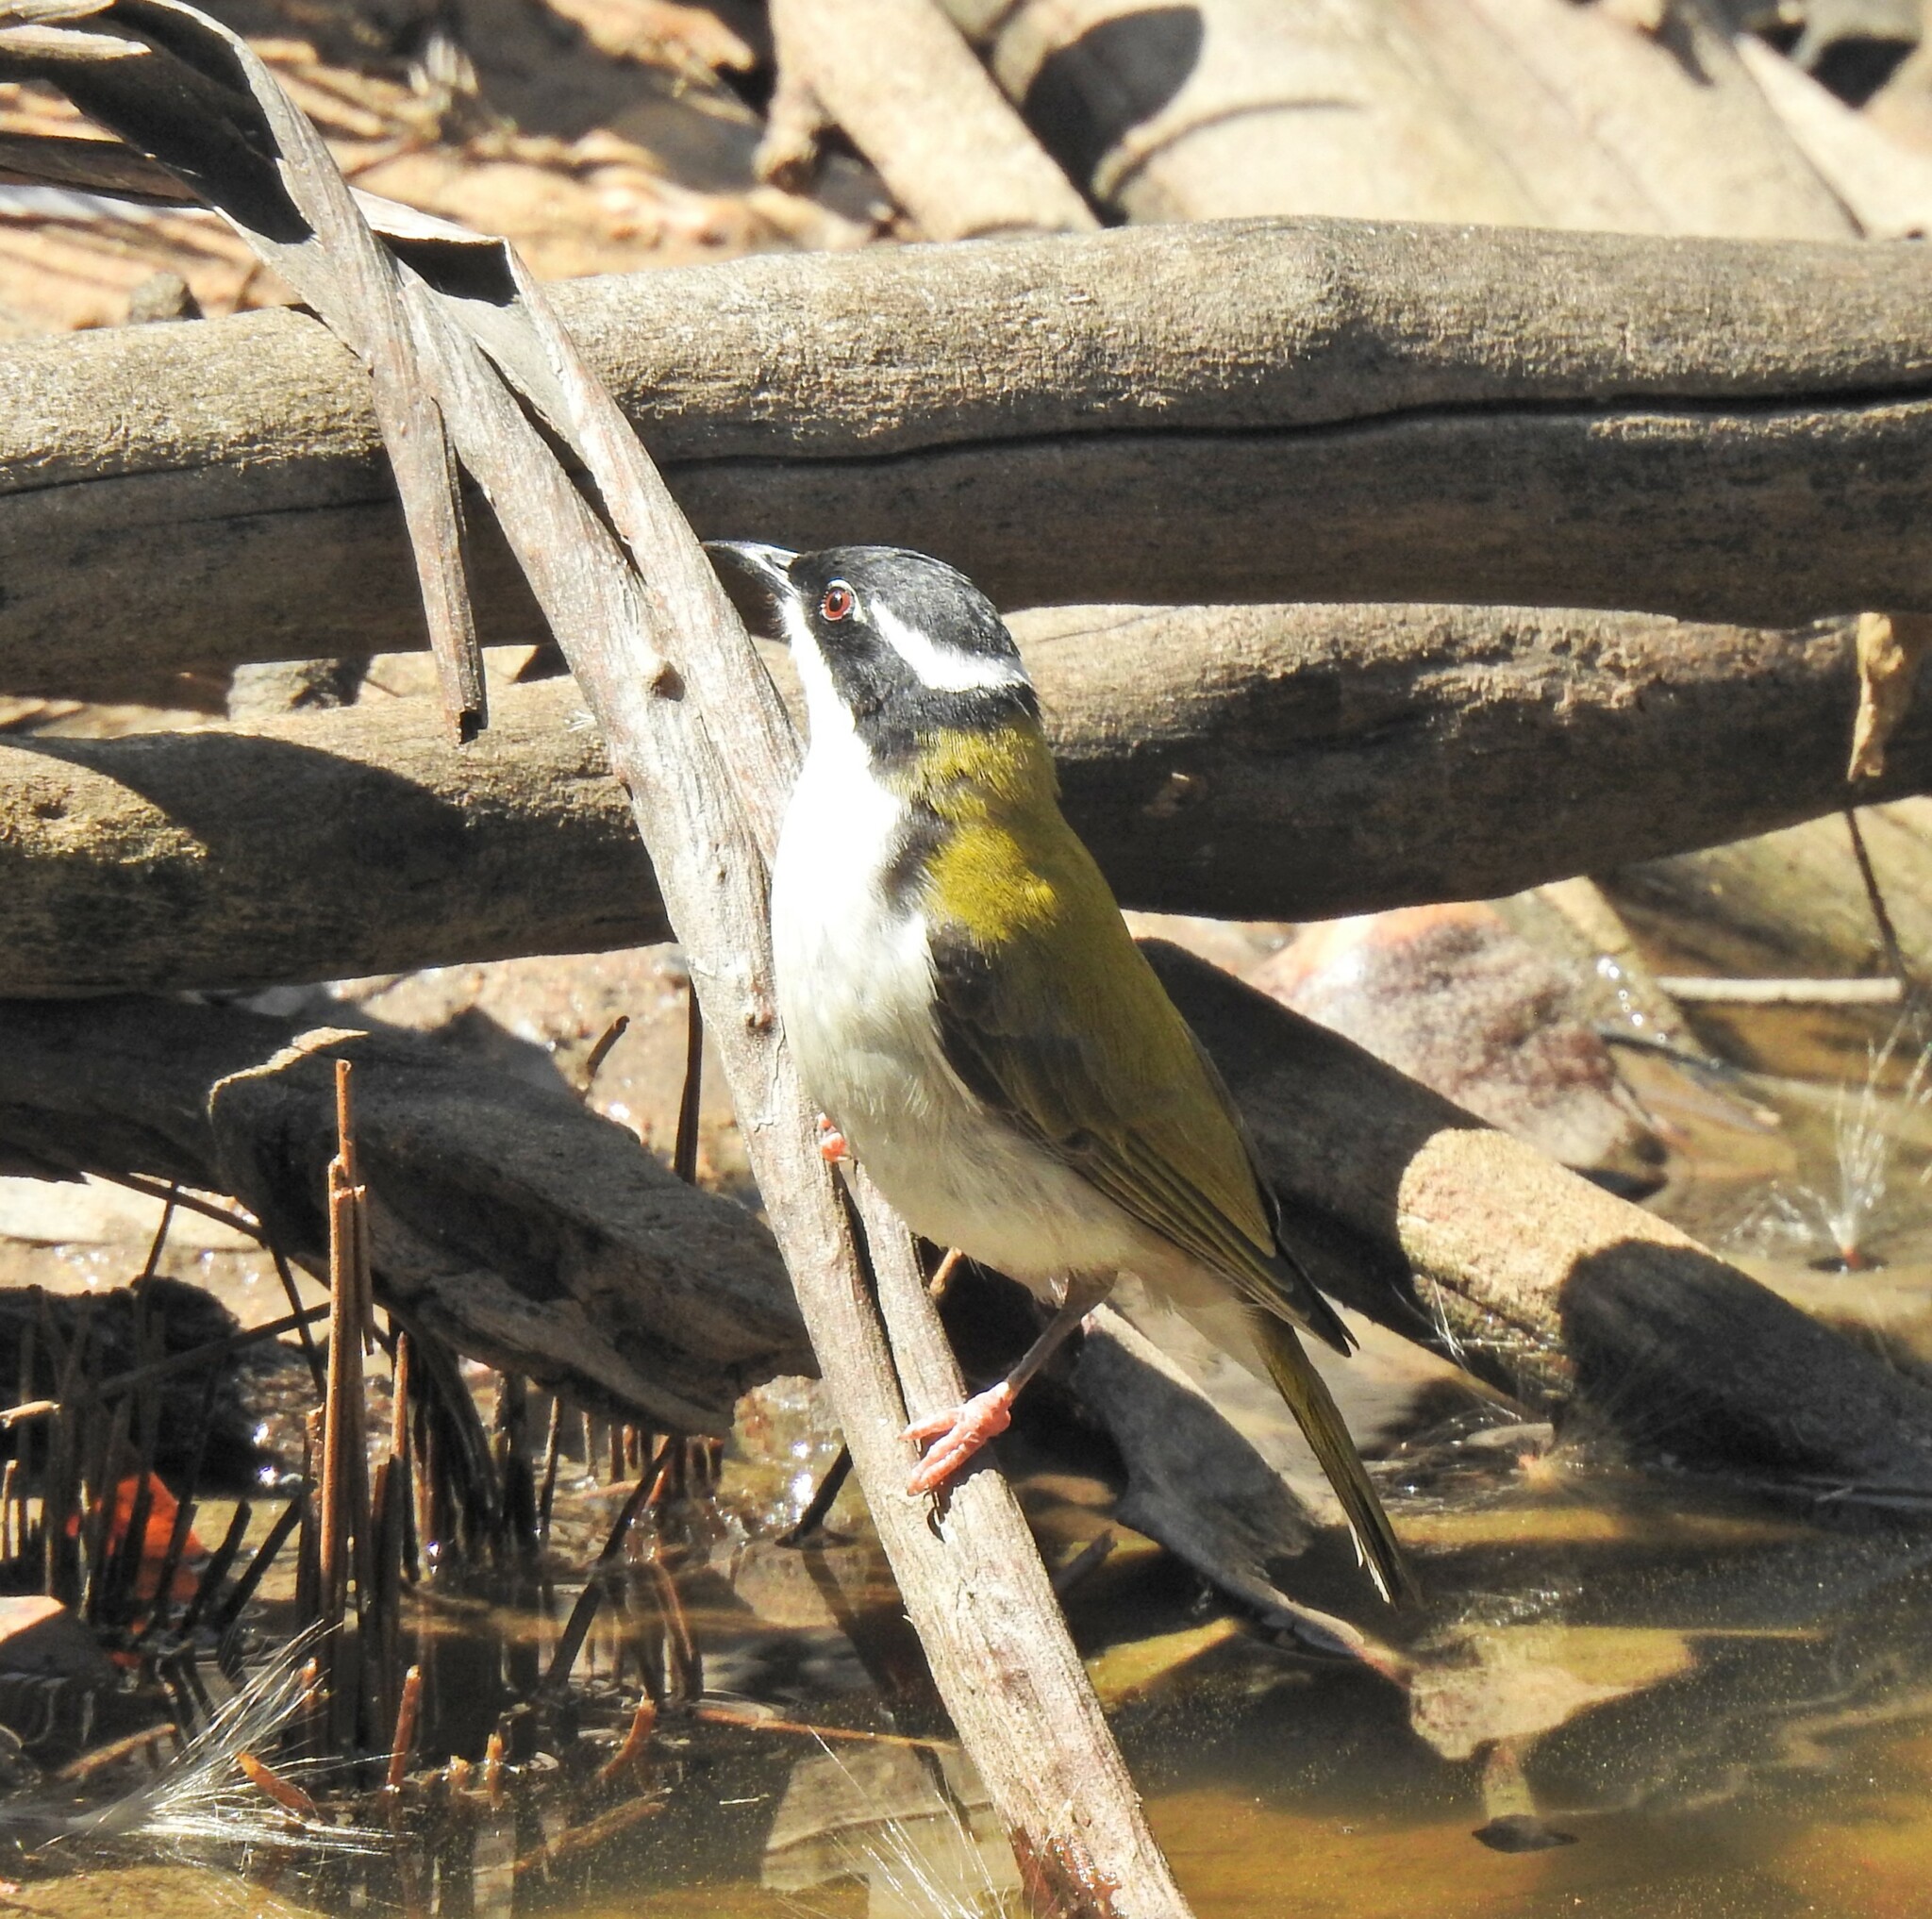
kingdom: Animalia
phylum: Chordata
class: Aves
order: Passeriformes
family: Meliphagidae
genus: Melithreptus
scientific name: Melithreptus albogularis
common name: White-throated honeyeater
